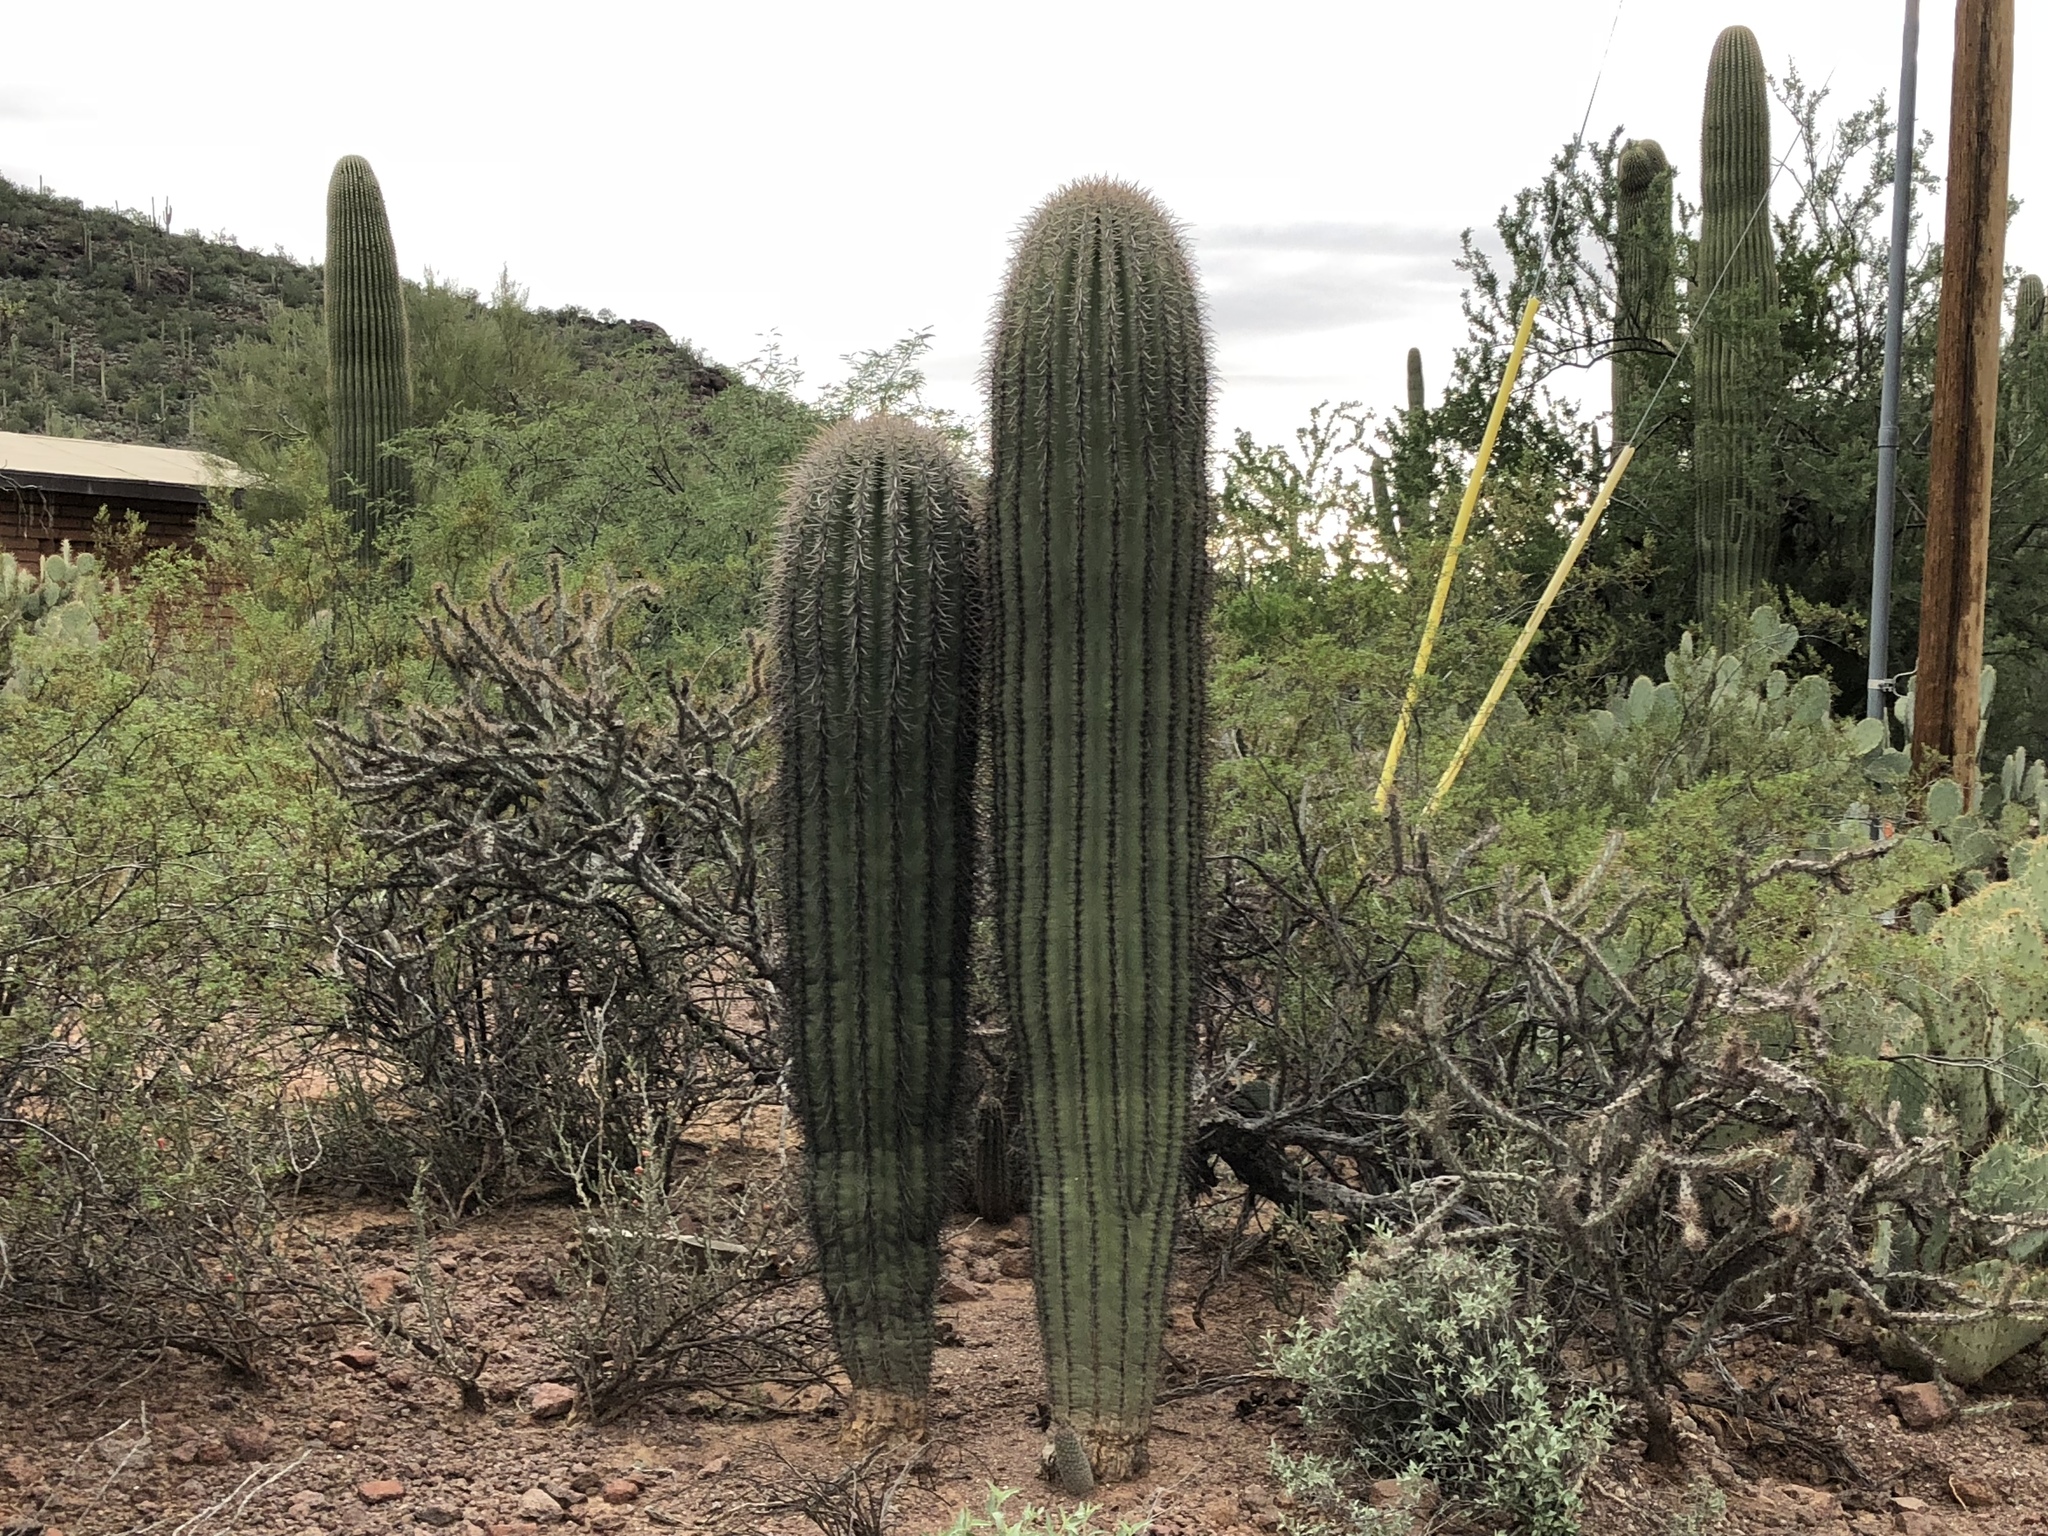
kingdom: Plantae
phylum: Tracheophyta
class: Magnoliopsida
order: Caryophyllales
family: Cactaceae
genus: Carnegiea
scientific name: Carnegiea gigantea
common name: Saguaro
